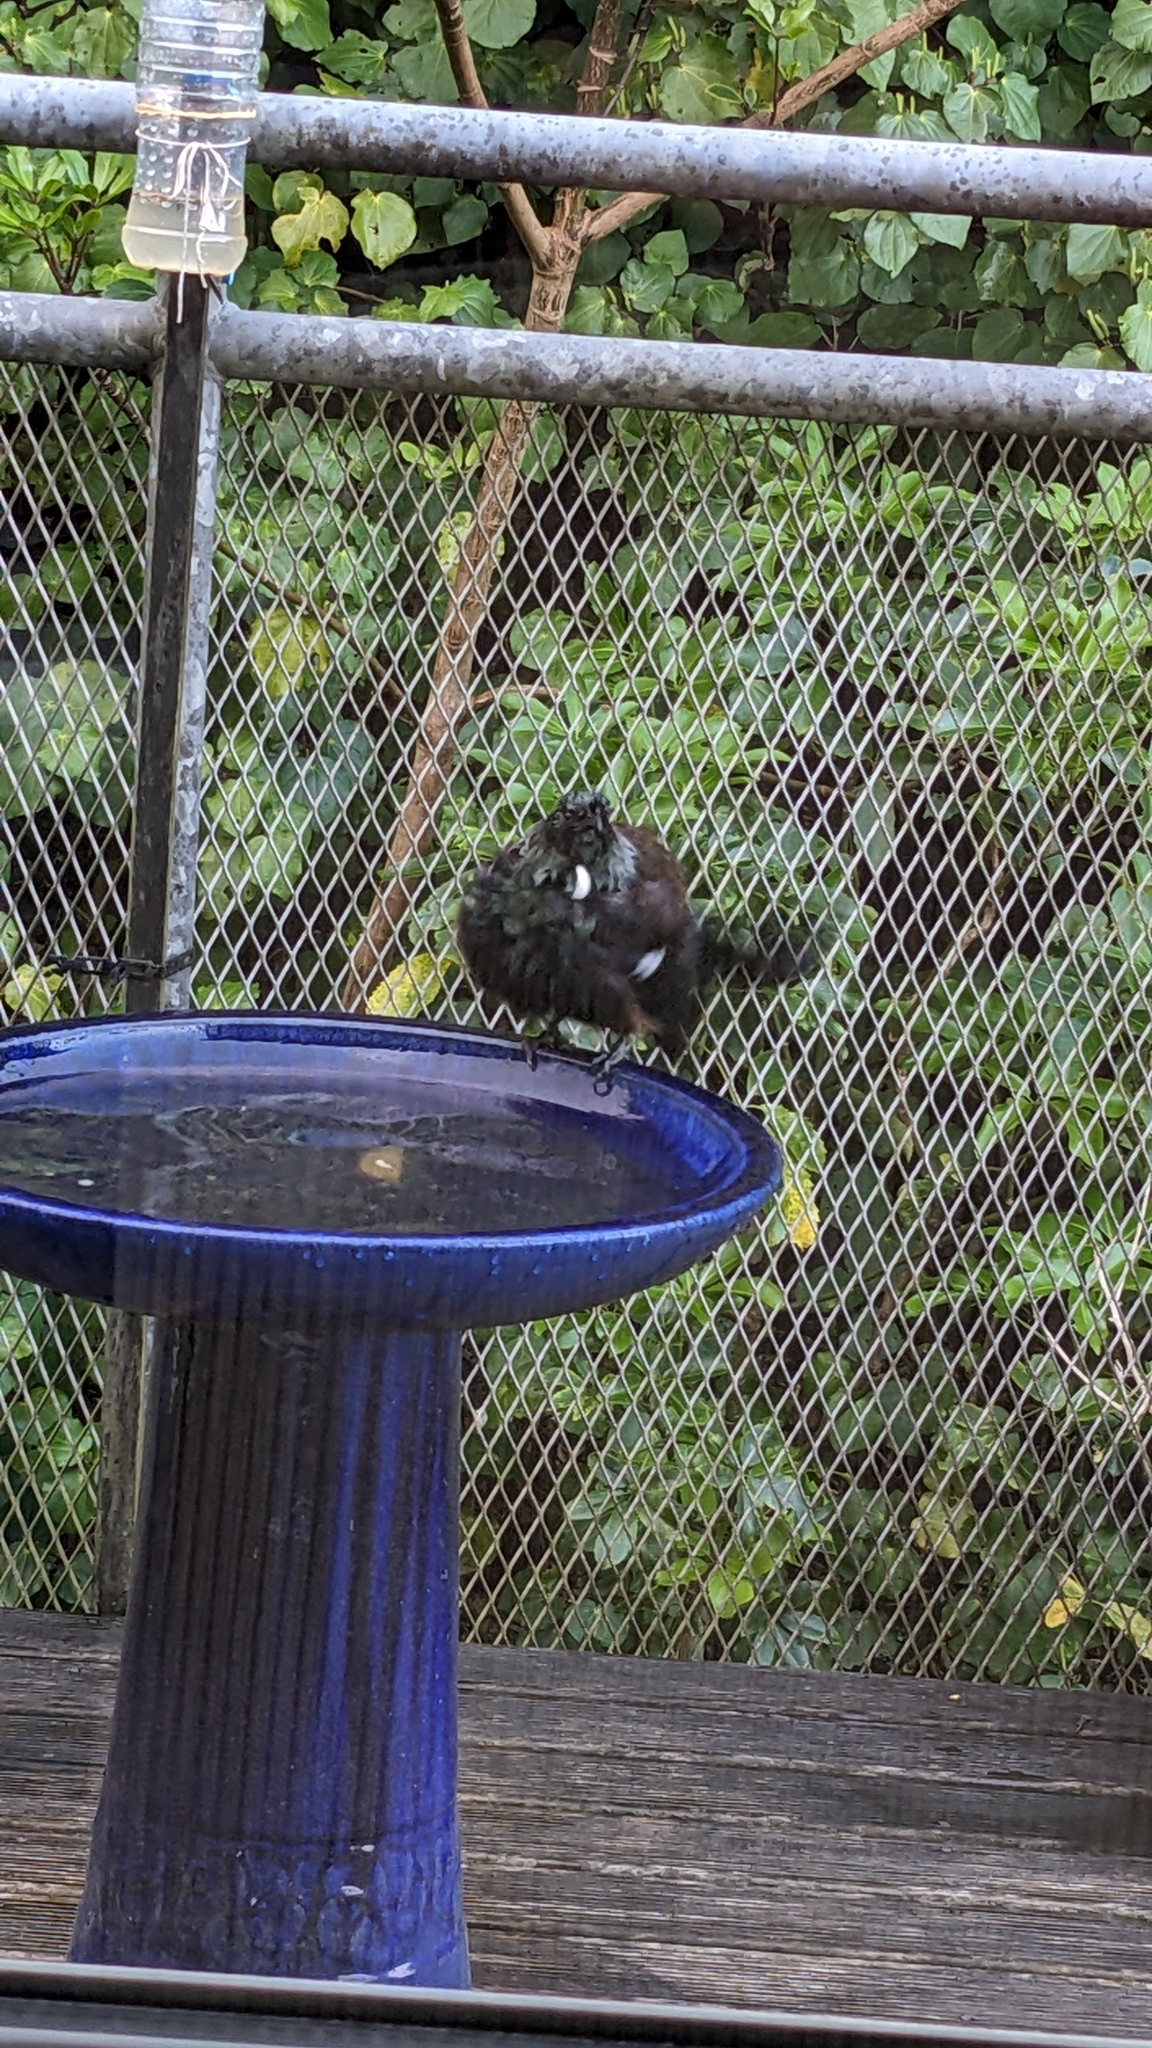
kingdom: Animalia
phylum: Chordata
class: Aves
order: Passeriformes
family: Meliphagidae
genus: Prosthemadera
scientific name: Prosthemadera novaeseelandiae
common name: Tui
